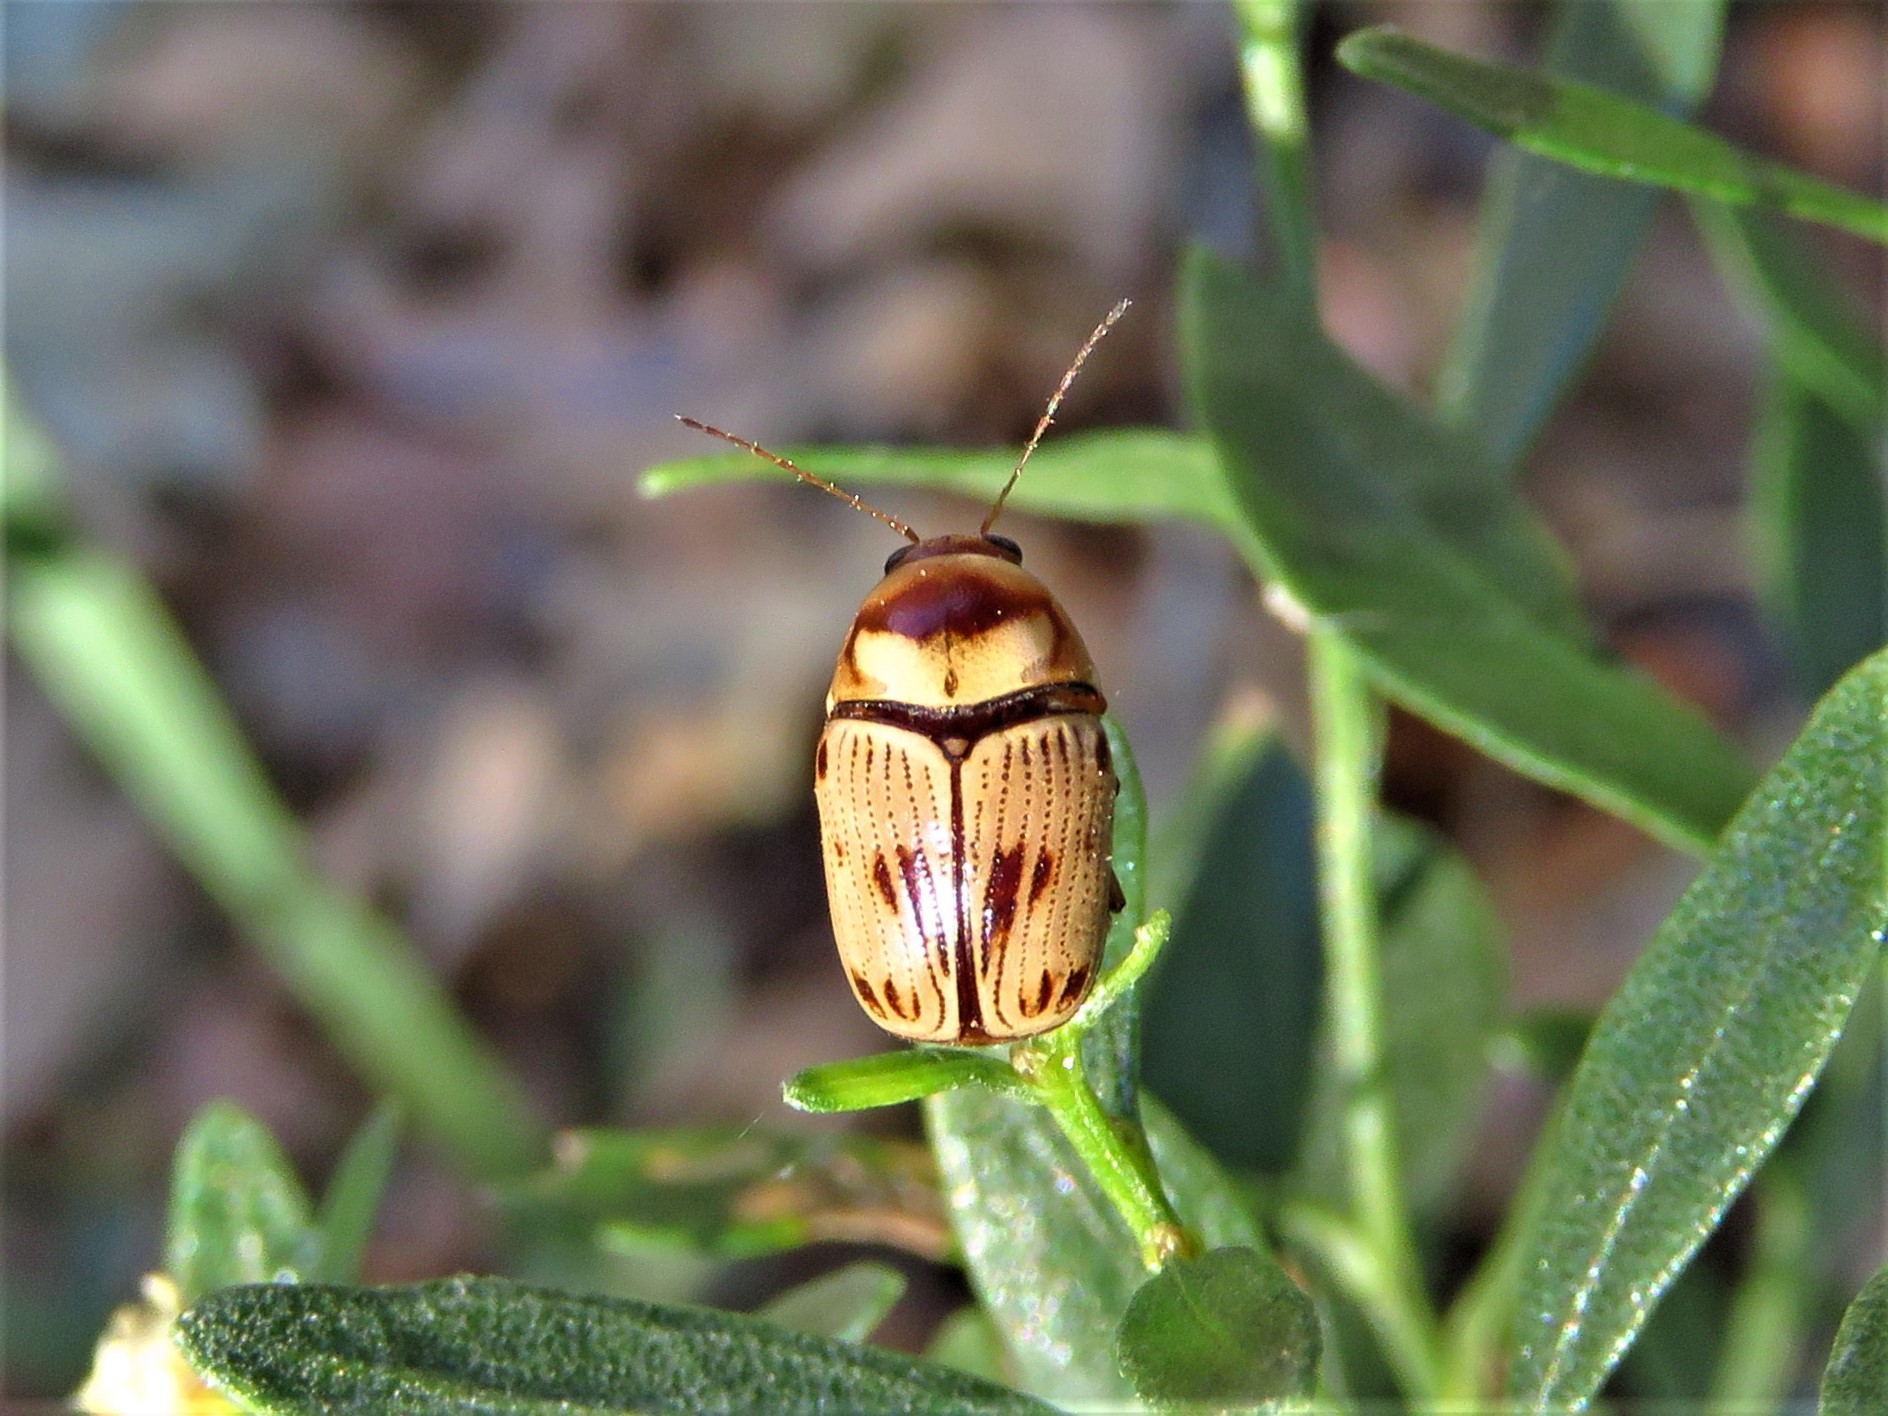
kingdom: Animalia
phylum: Arthropoda
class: Insecta
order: Coleoptera
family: Chrysomelidae
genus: Cryptocephalus
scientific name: Cryptocephalus mutabilis
